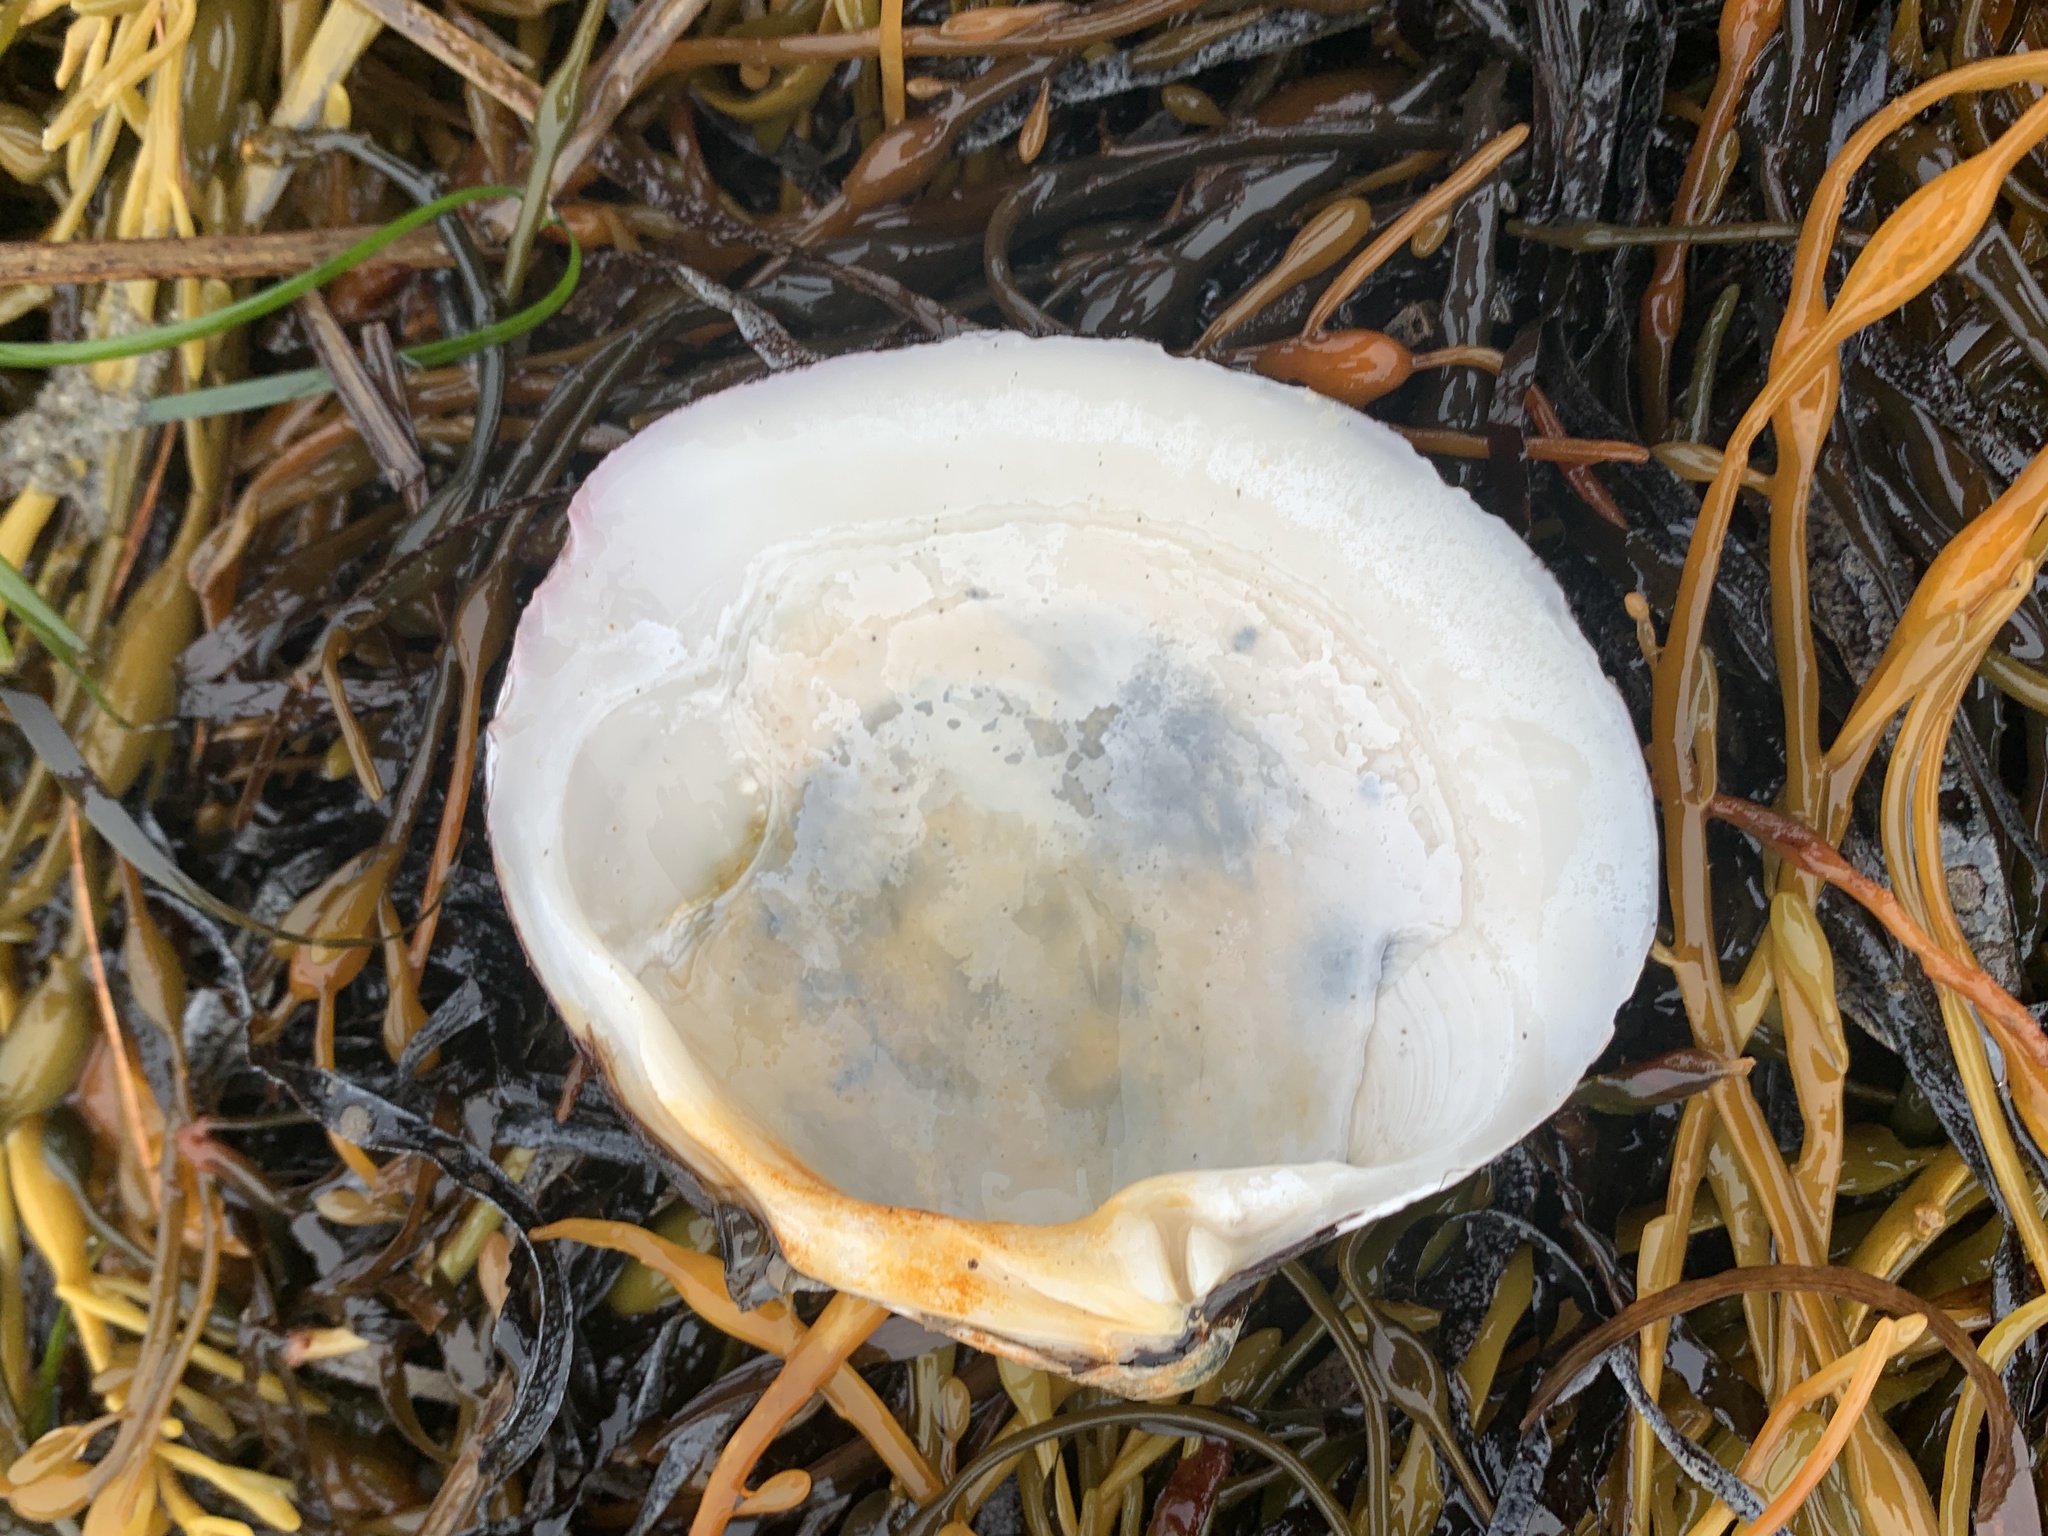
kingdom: Animalia
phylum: Mollusca
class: Bivalvia
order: Venerida
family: Arcticidae
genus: Arctica
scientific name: Arctica islandica
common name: Icelandic cyprine
